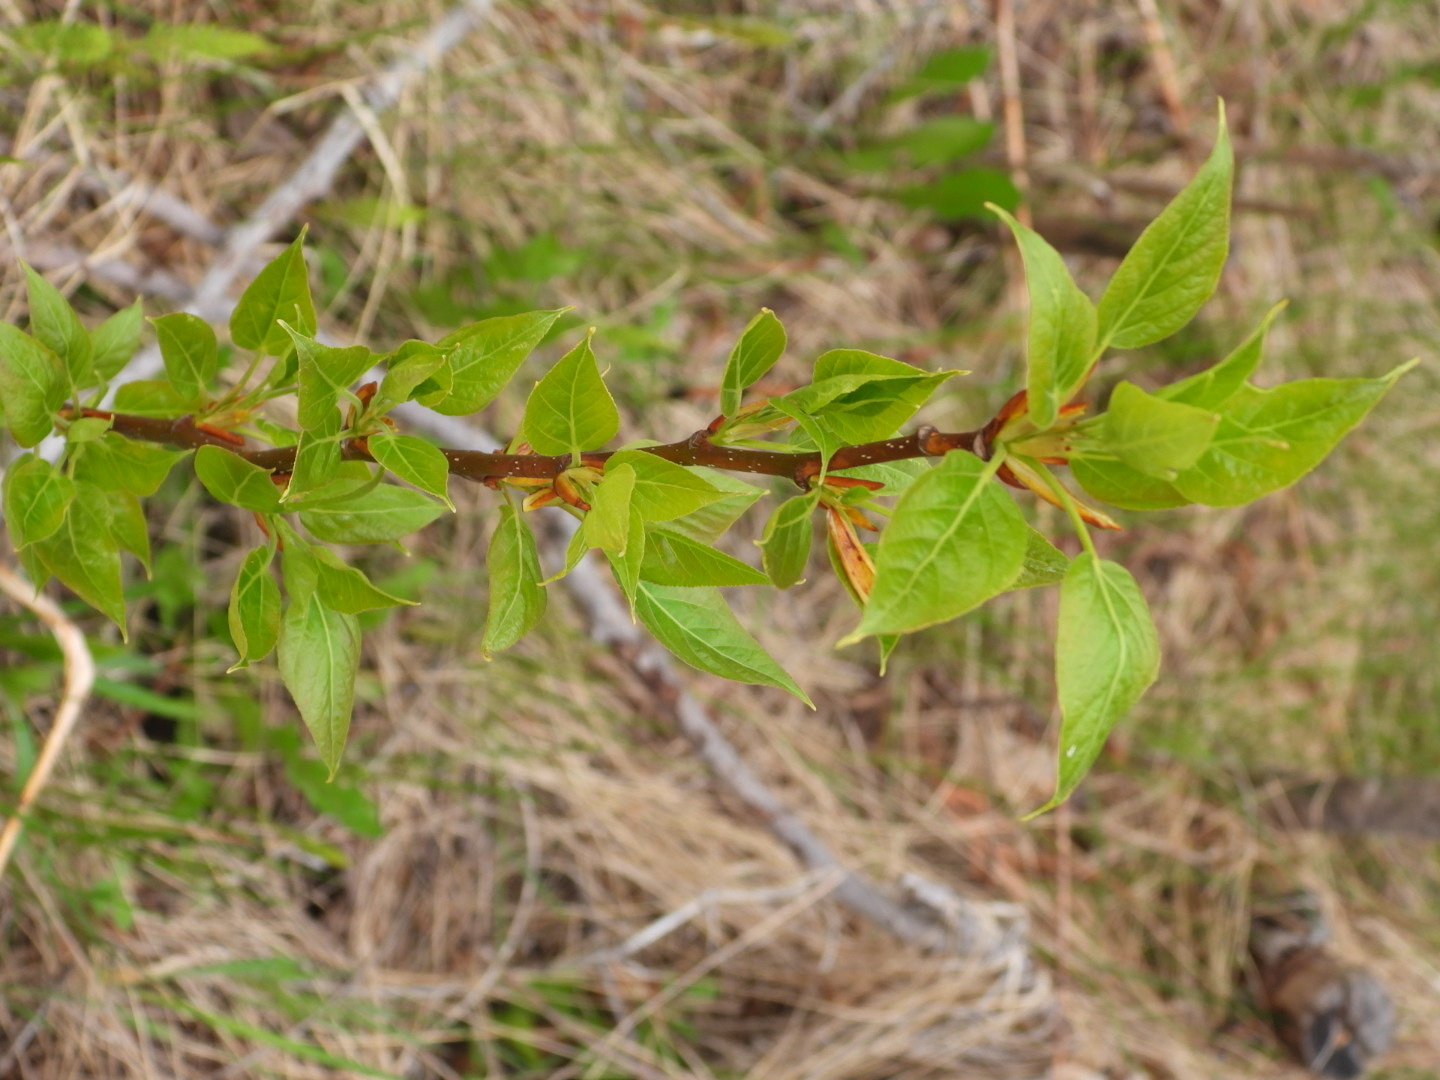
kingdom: Plantae
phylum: Tracheophyta
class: Magnoliopsida
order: Malpighiales
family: Salicaceae
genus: Populus
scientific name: Populus balsamifera
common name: Balsam poplar
